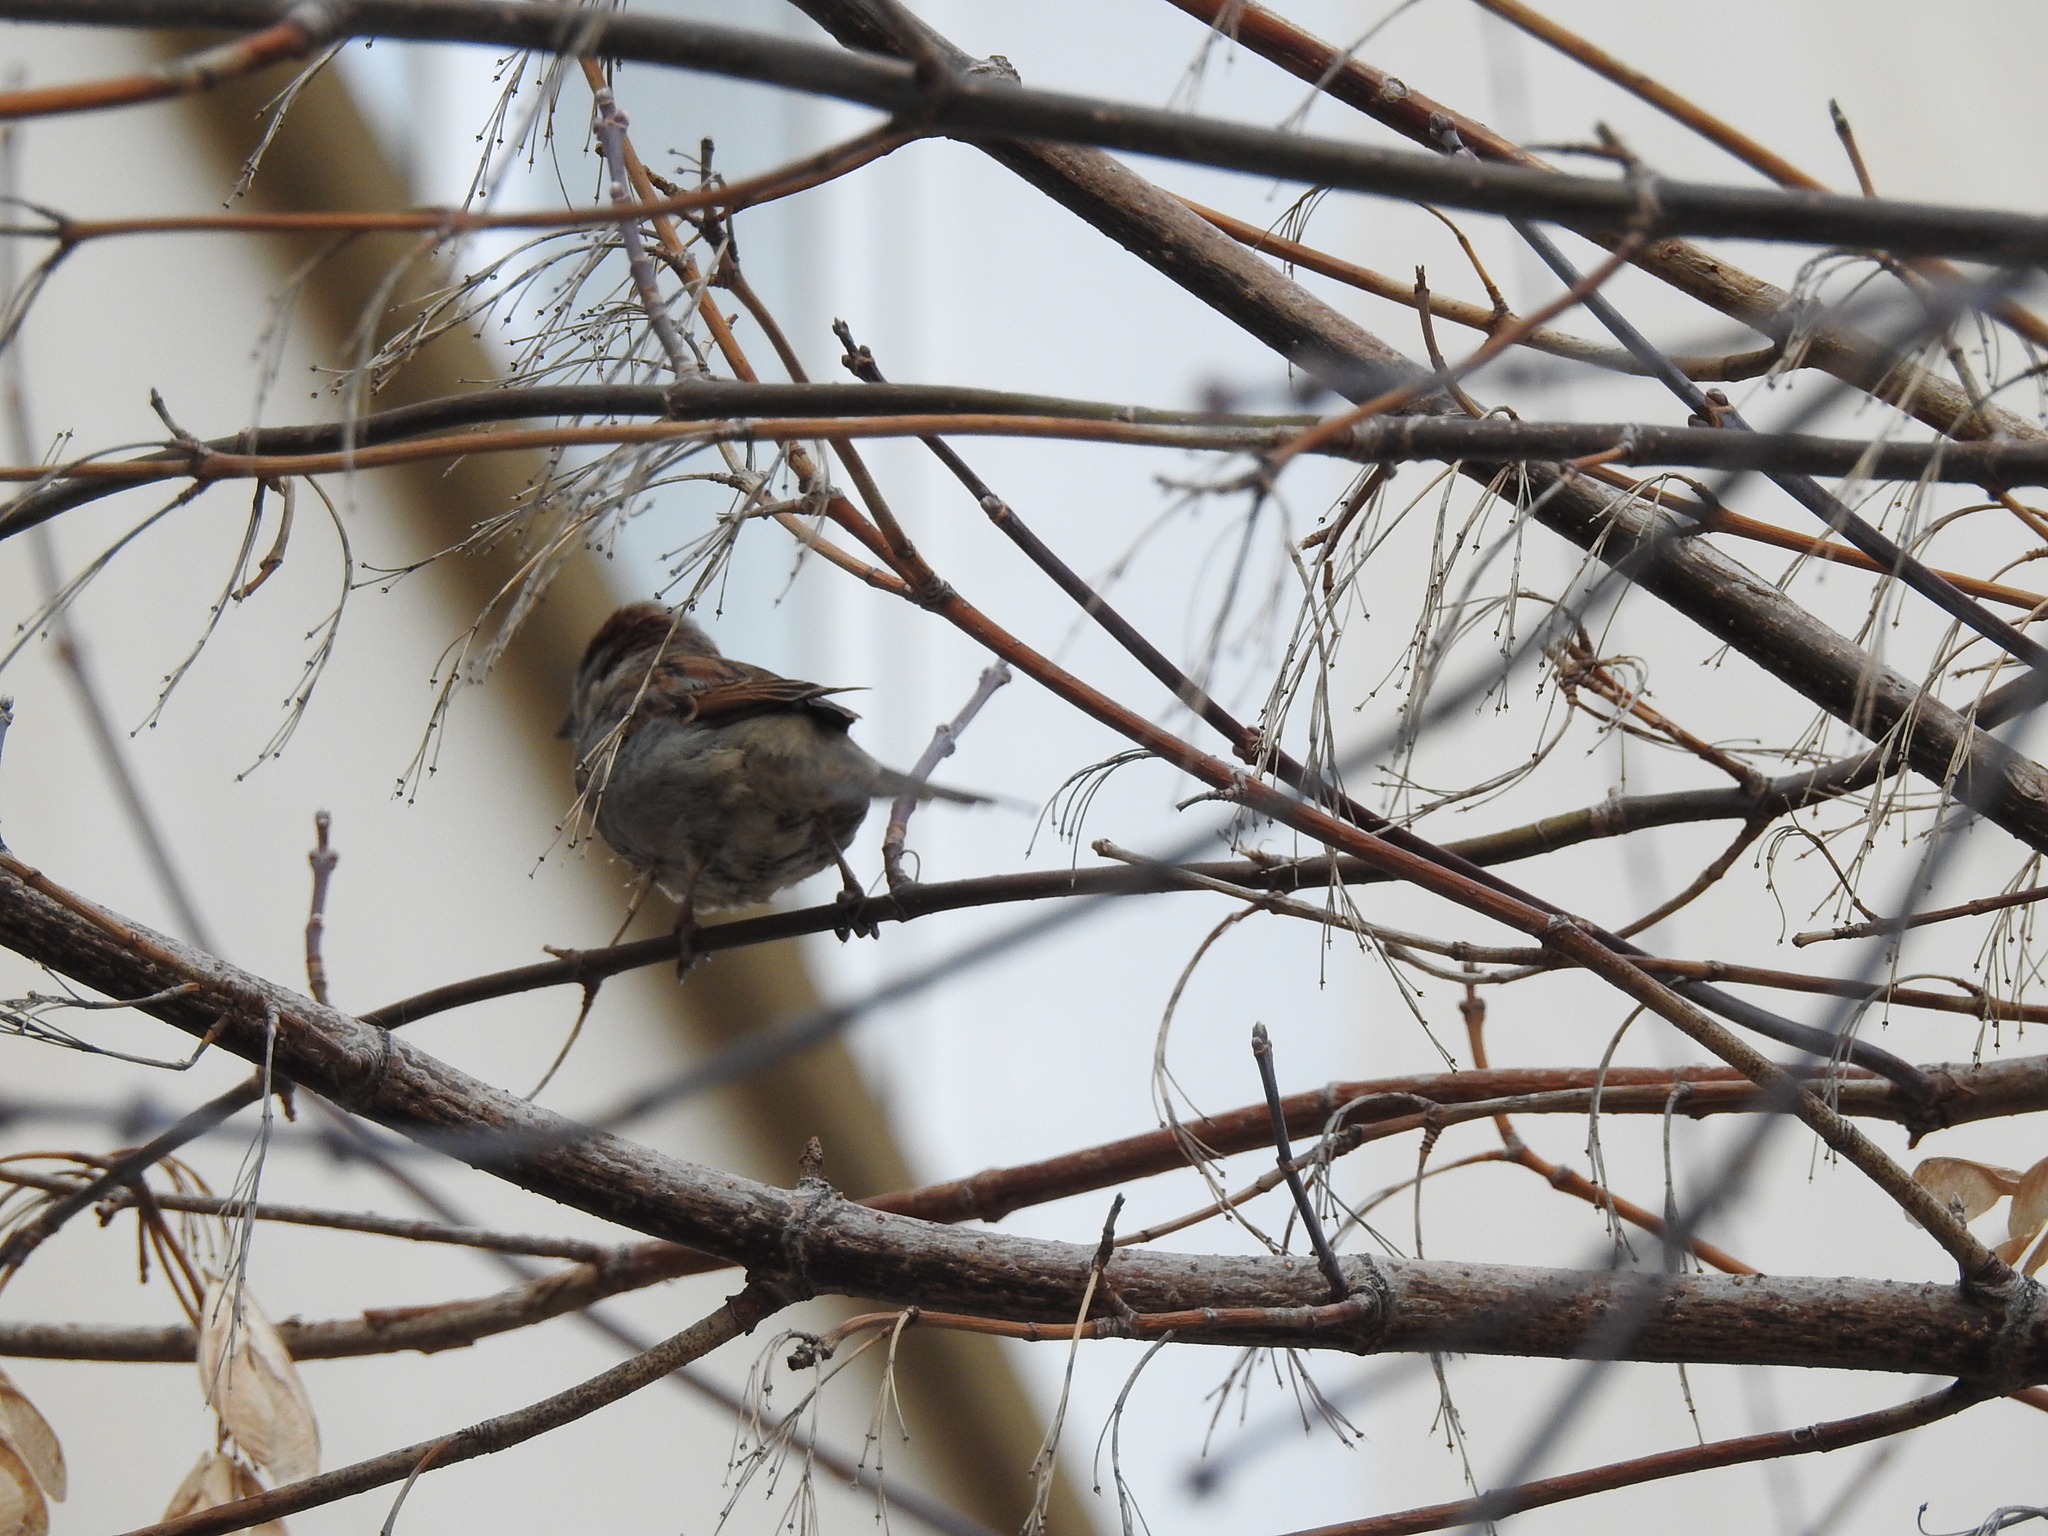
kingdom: Animalia
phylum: Chordata
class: Aves
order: Passeriformes
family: Passeridae
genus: Passer
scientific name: Passer domesticus
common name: House sparrow
